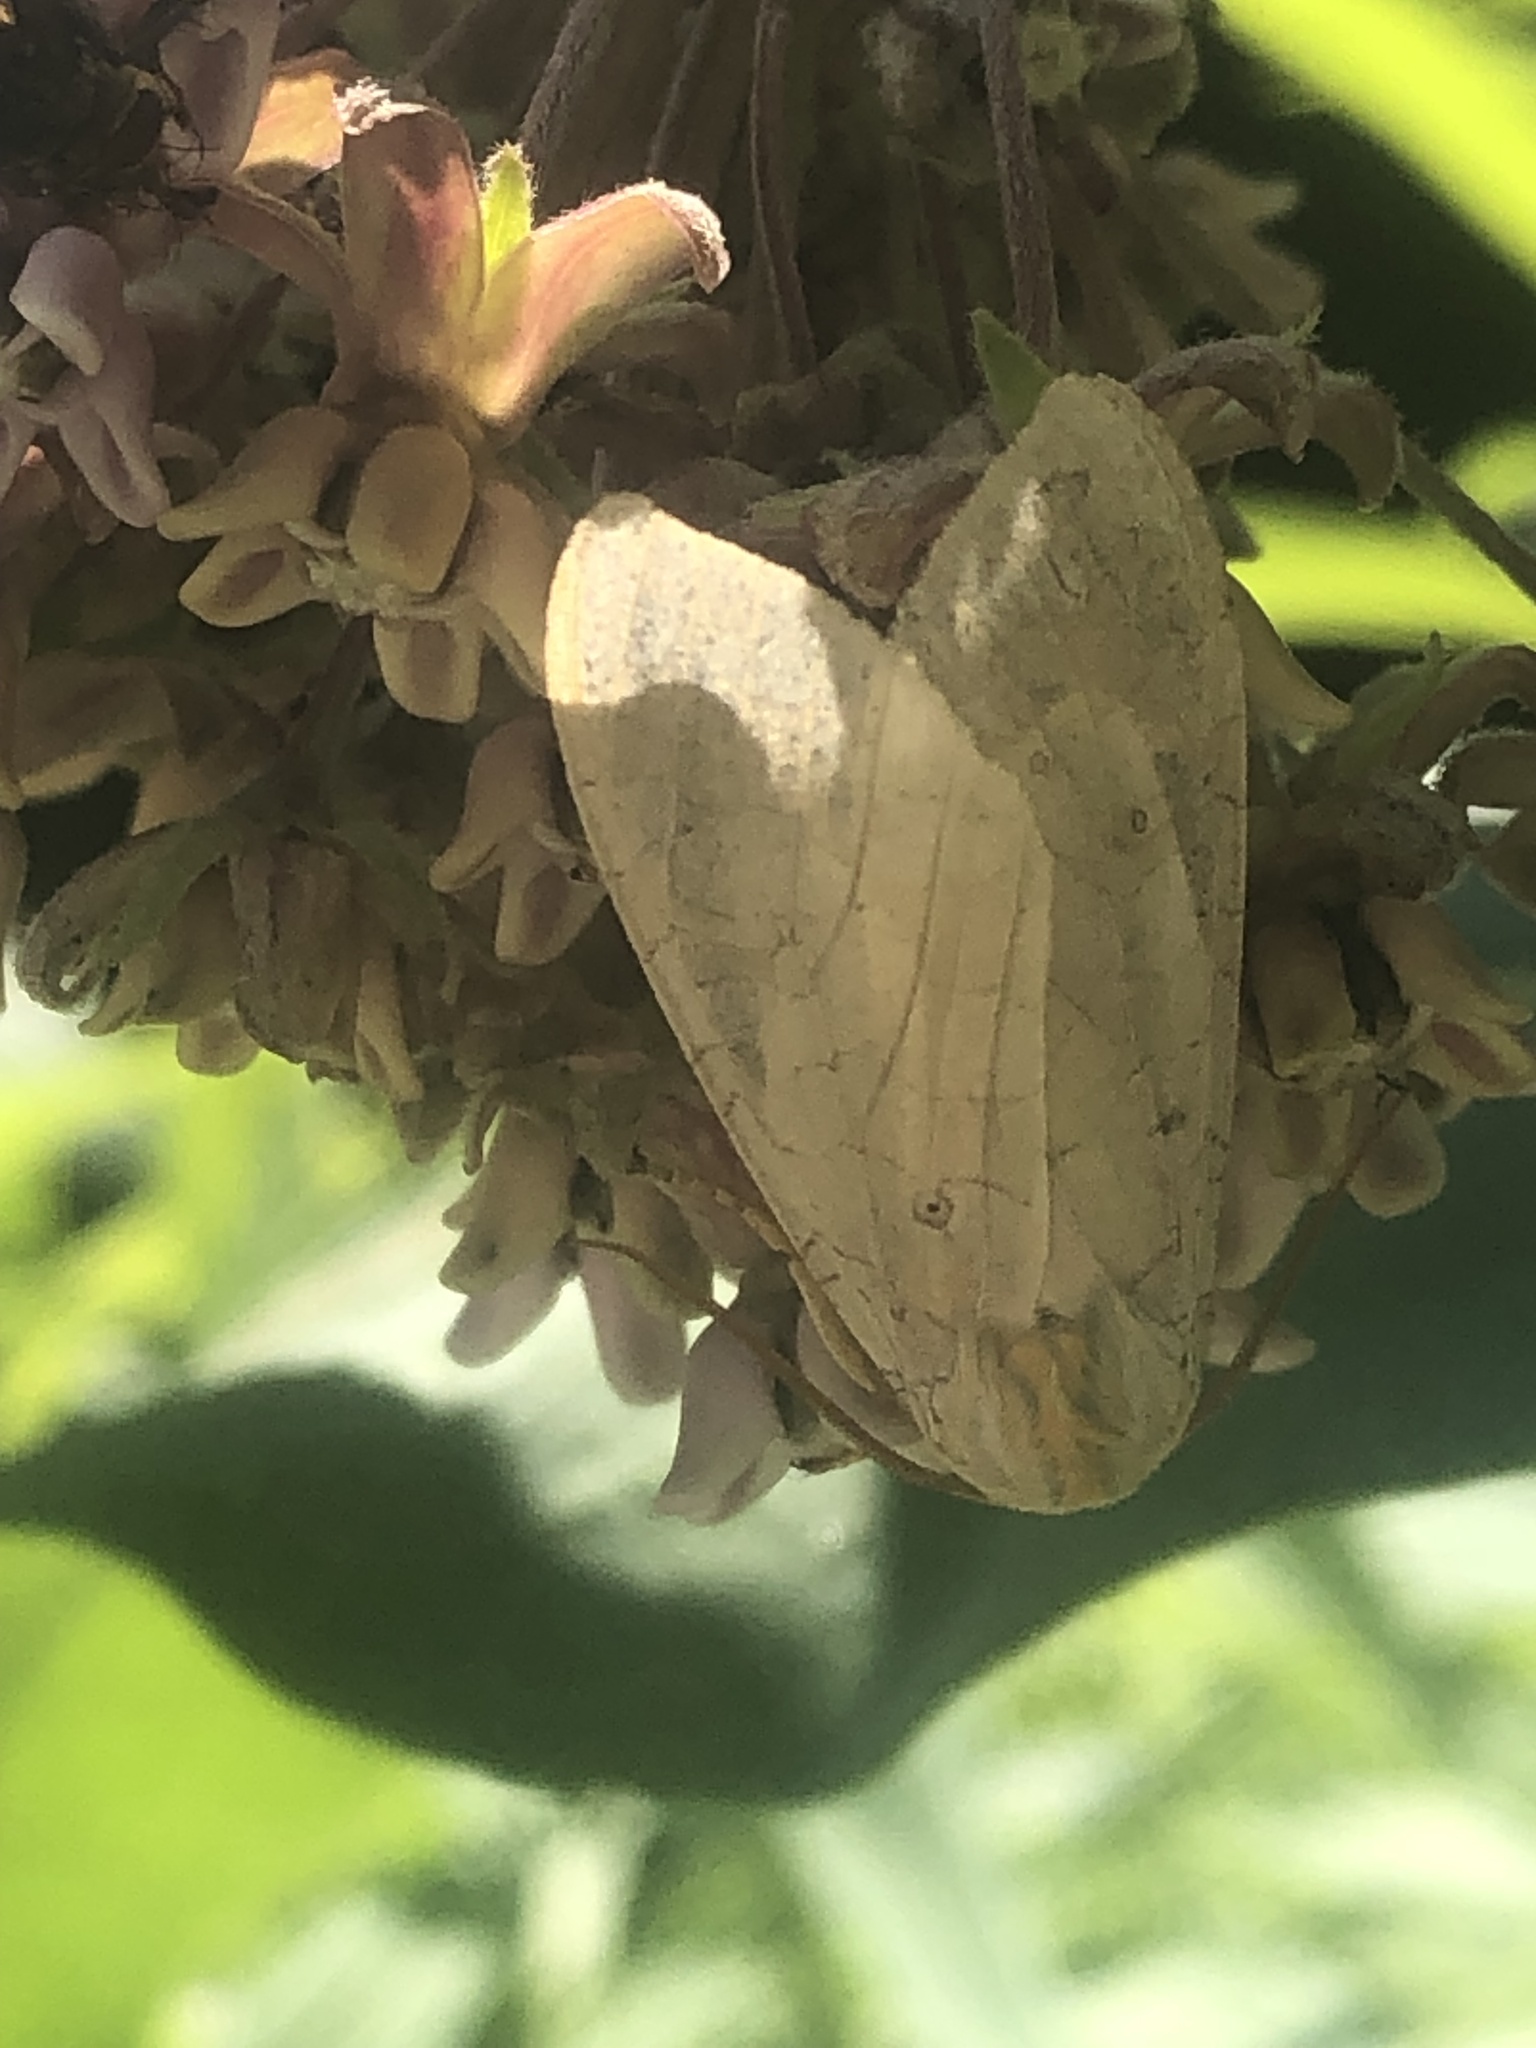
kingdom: Animalia
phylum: Arthropoda
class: Insecta
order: Lepidoptera
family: Erebidae
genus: Halysidota
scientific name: Halysidota
